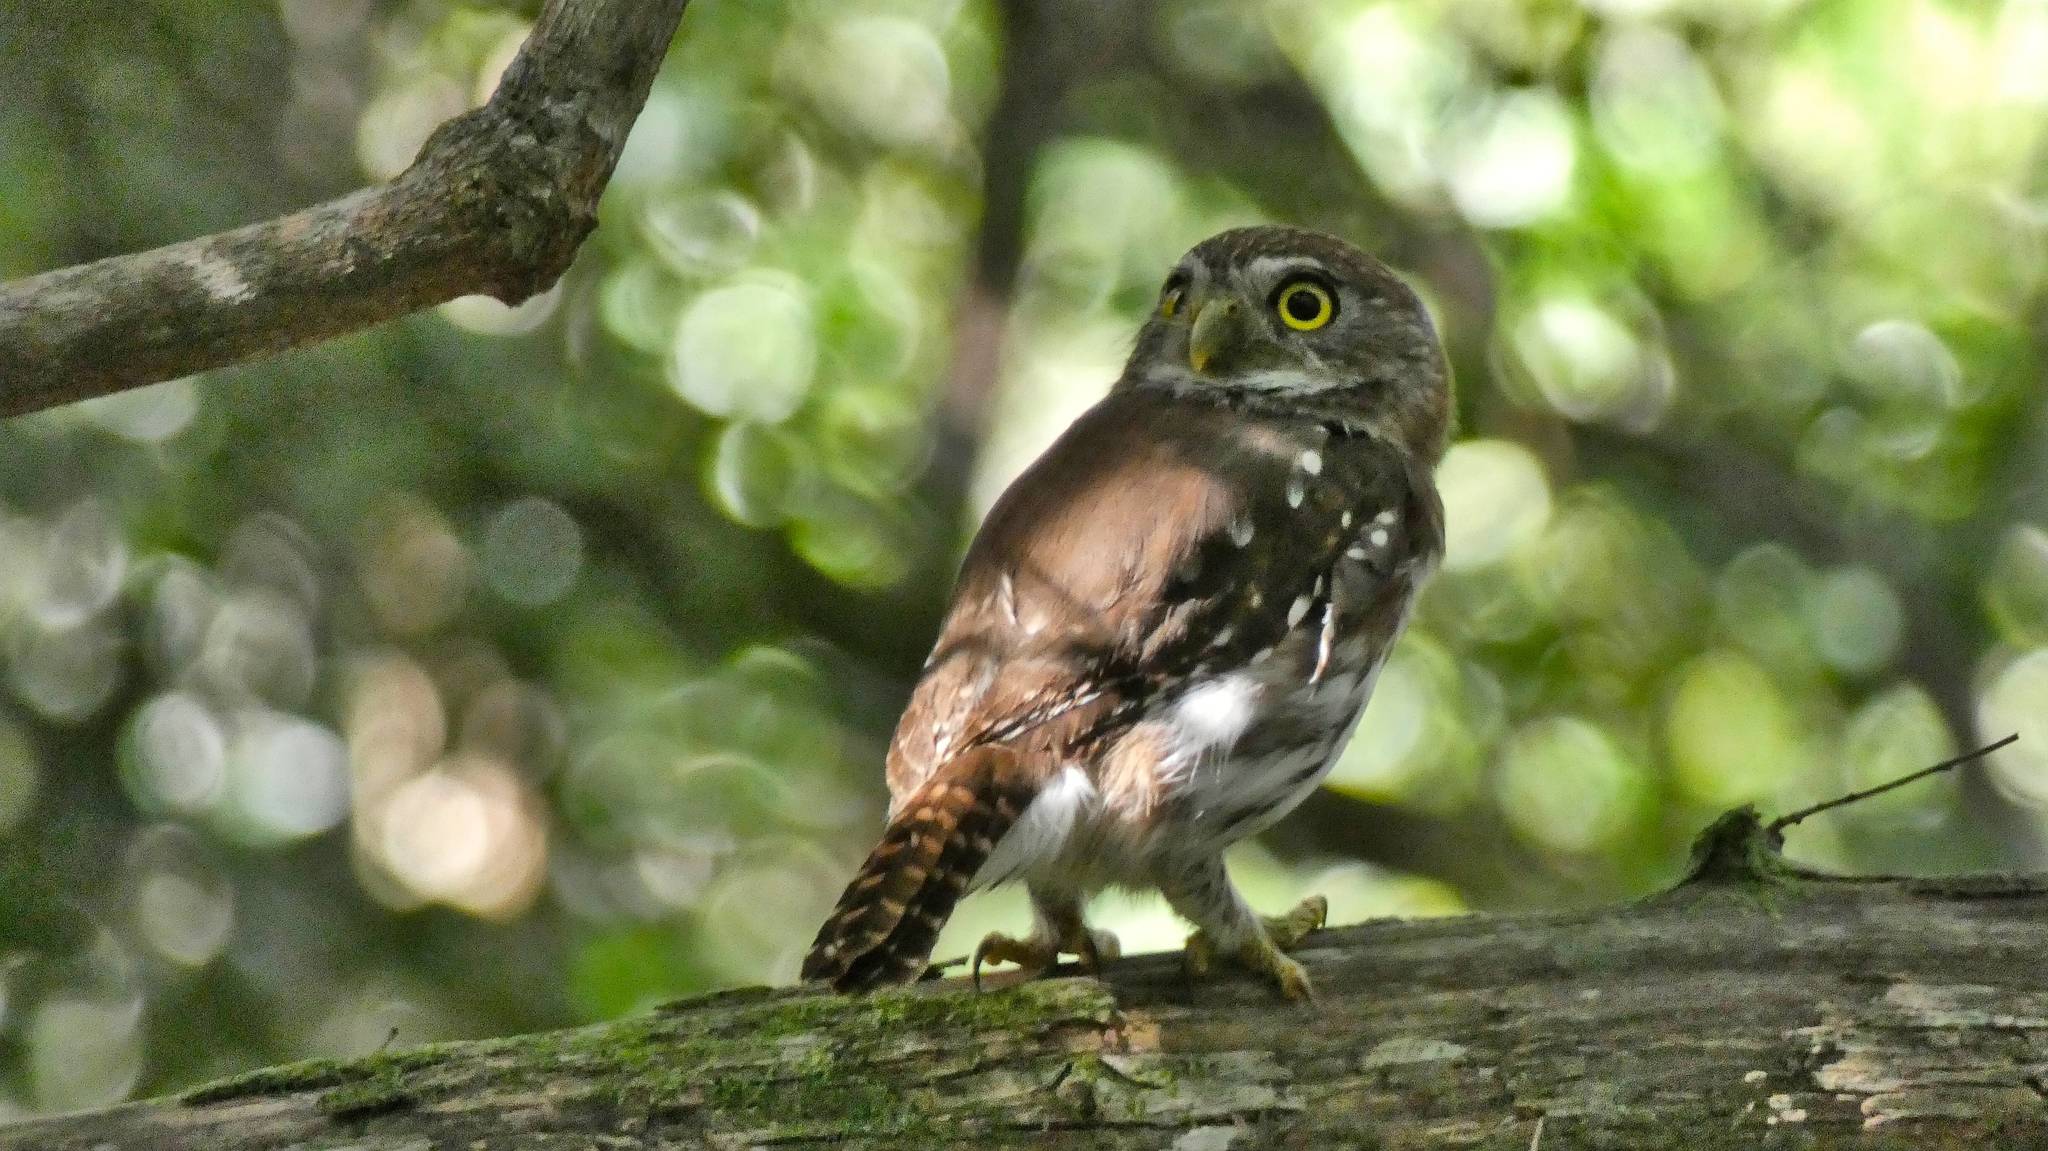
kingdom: Animalia
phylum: Chordata
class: Aves
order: Strigiformes
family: Strigidae
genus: Glaucidium
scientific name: Glaucidium brasilianum
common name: Ferruginous pygmy-owl
